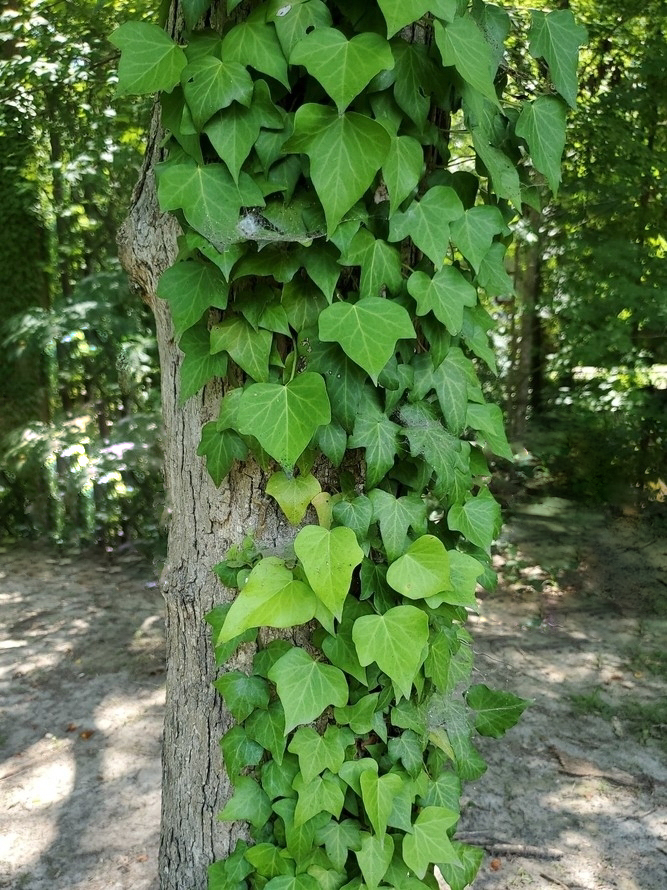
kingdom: Plantae
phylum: Tracheophyta
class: Magnoliopsida
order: Apiales
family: Araliaceae
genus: Hedera
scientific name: Hedera hibernica
